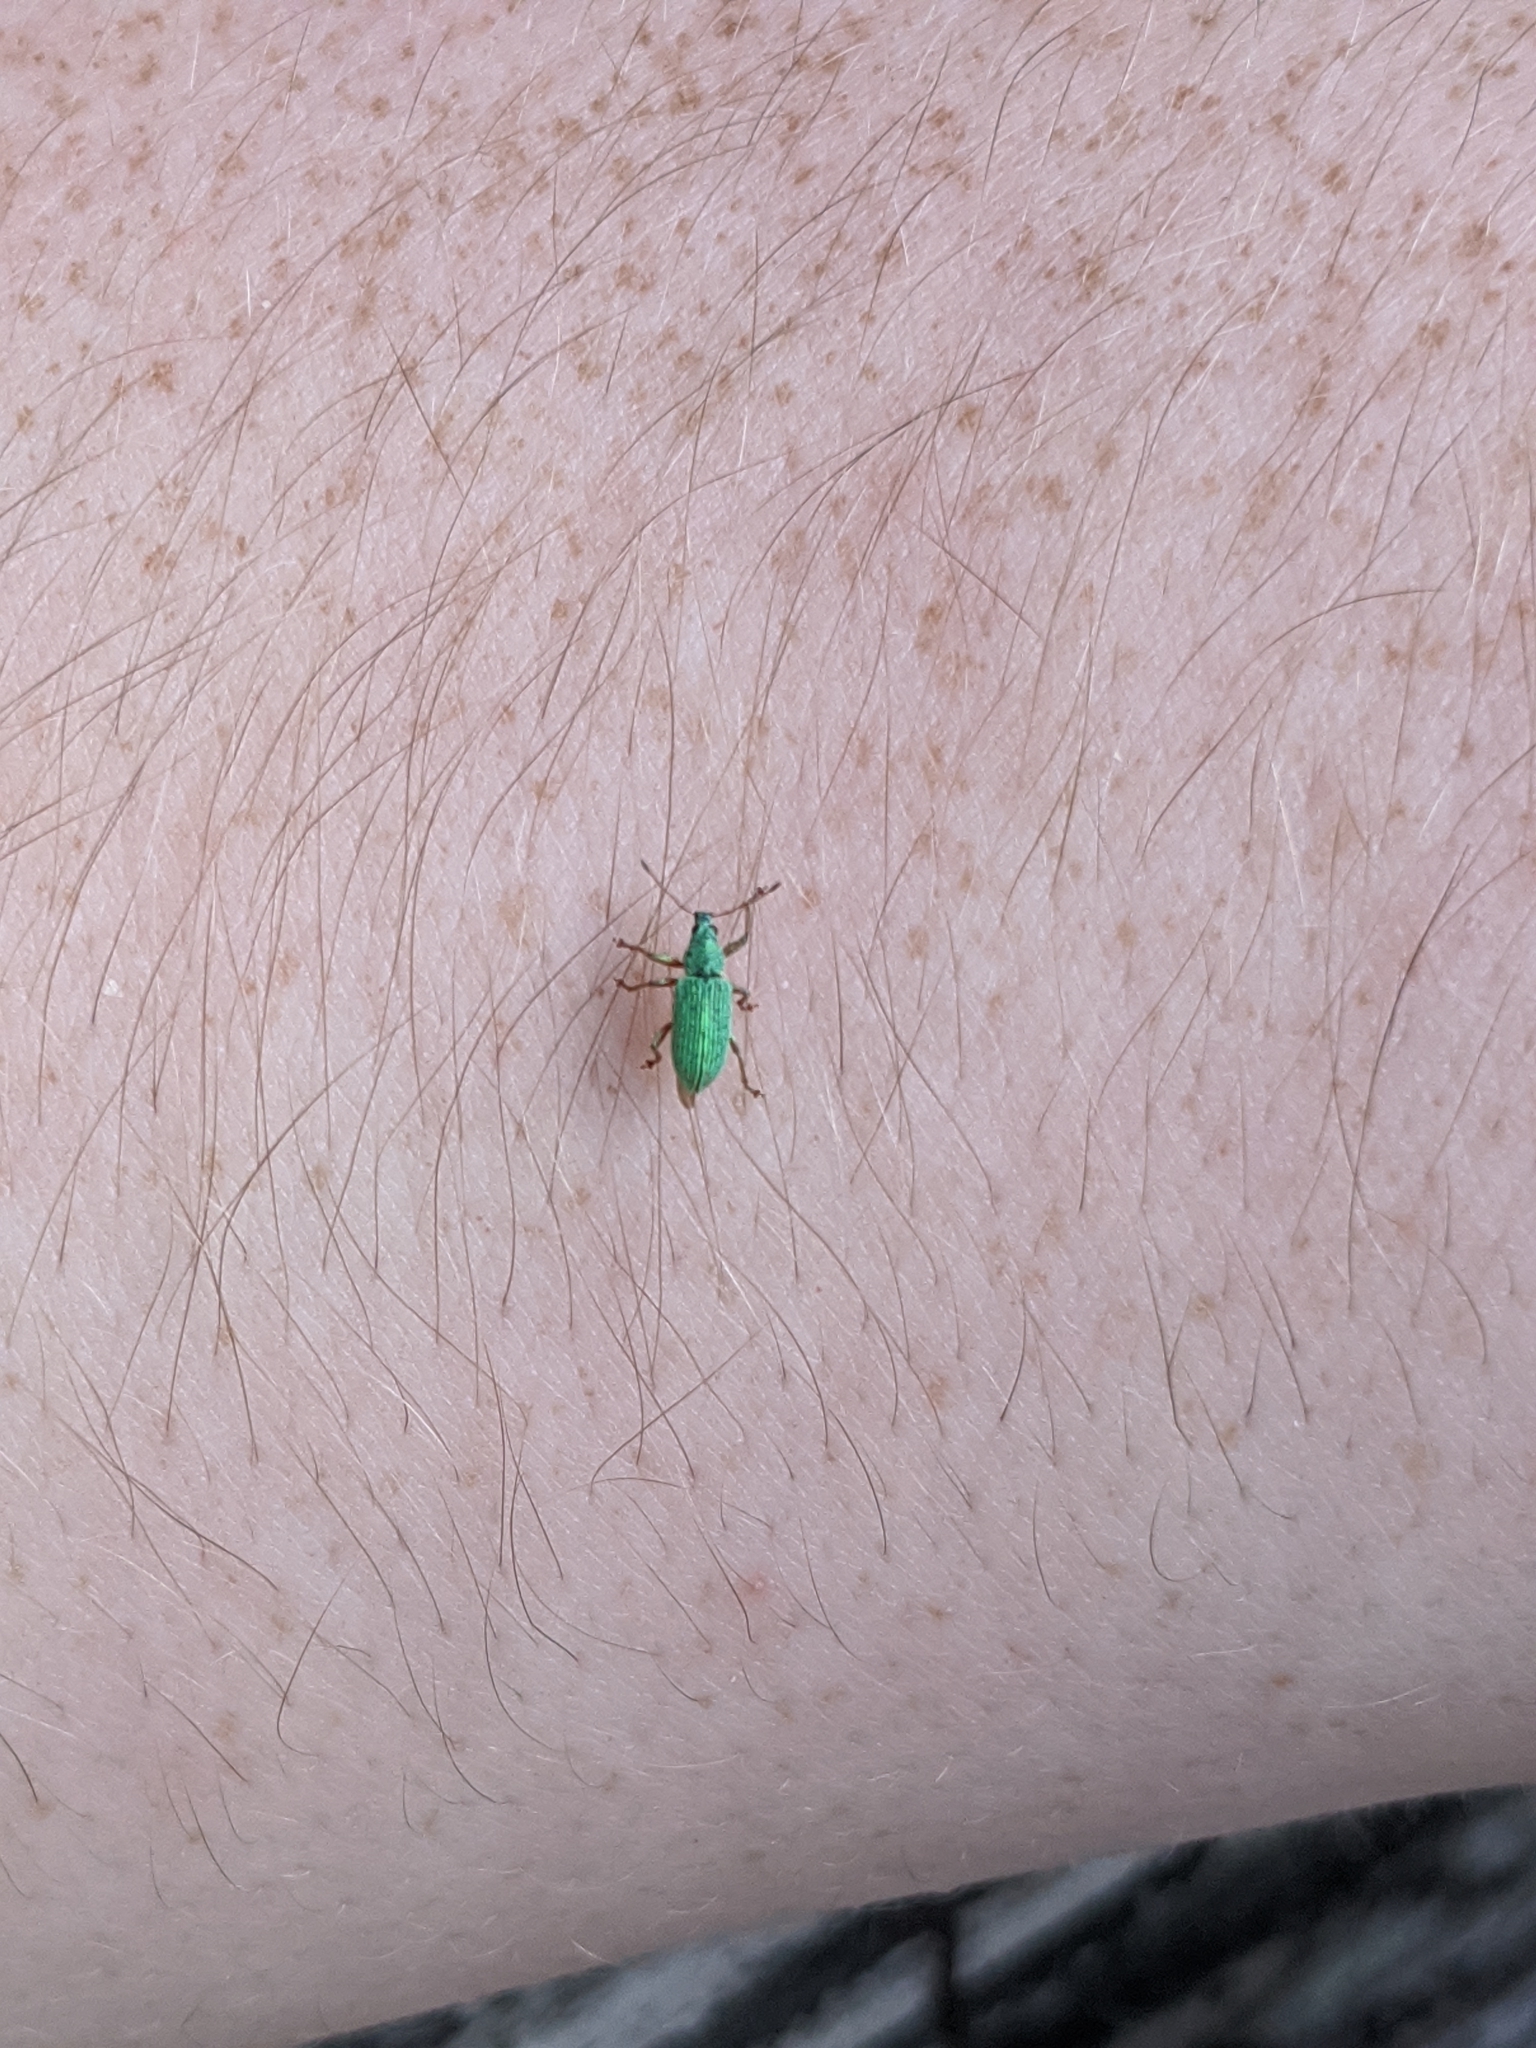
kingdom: Animalia
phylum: Arthropoda
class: Insecta
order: Coleoptera
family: Curculionidae
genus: Polydrusus
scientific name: Polydrusus formosus
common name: Weevil
